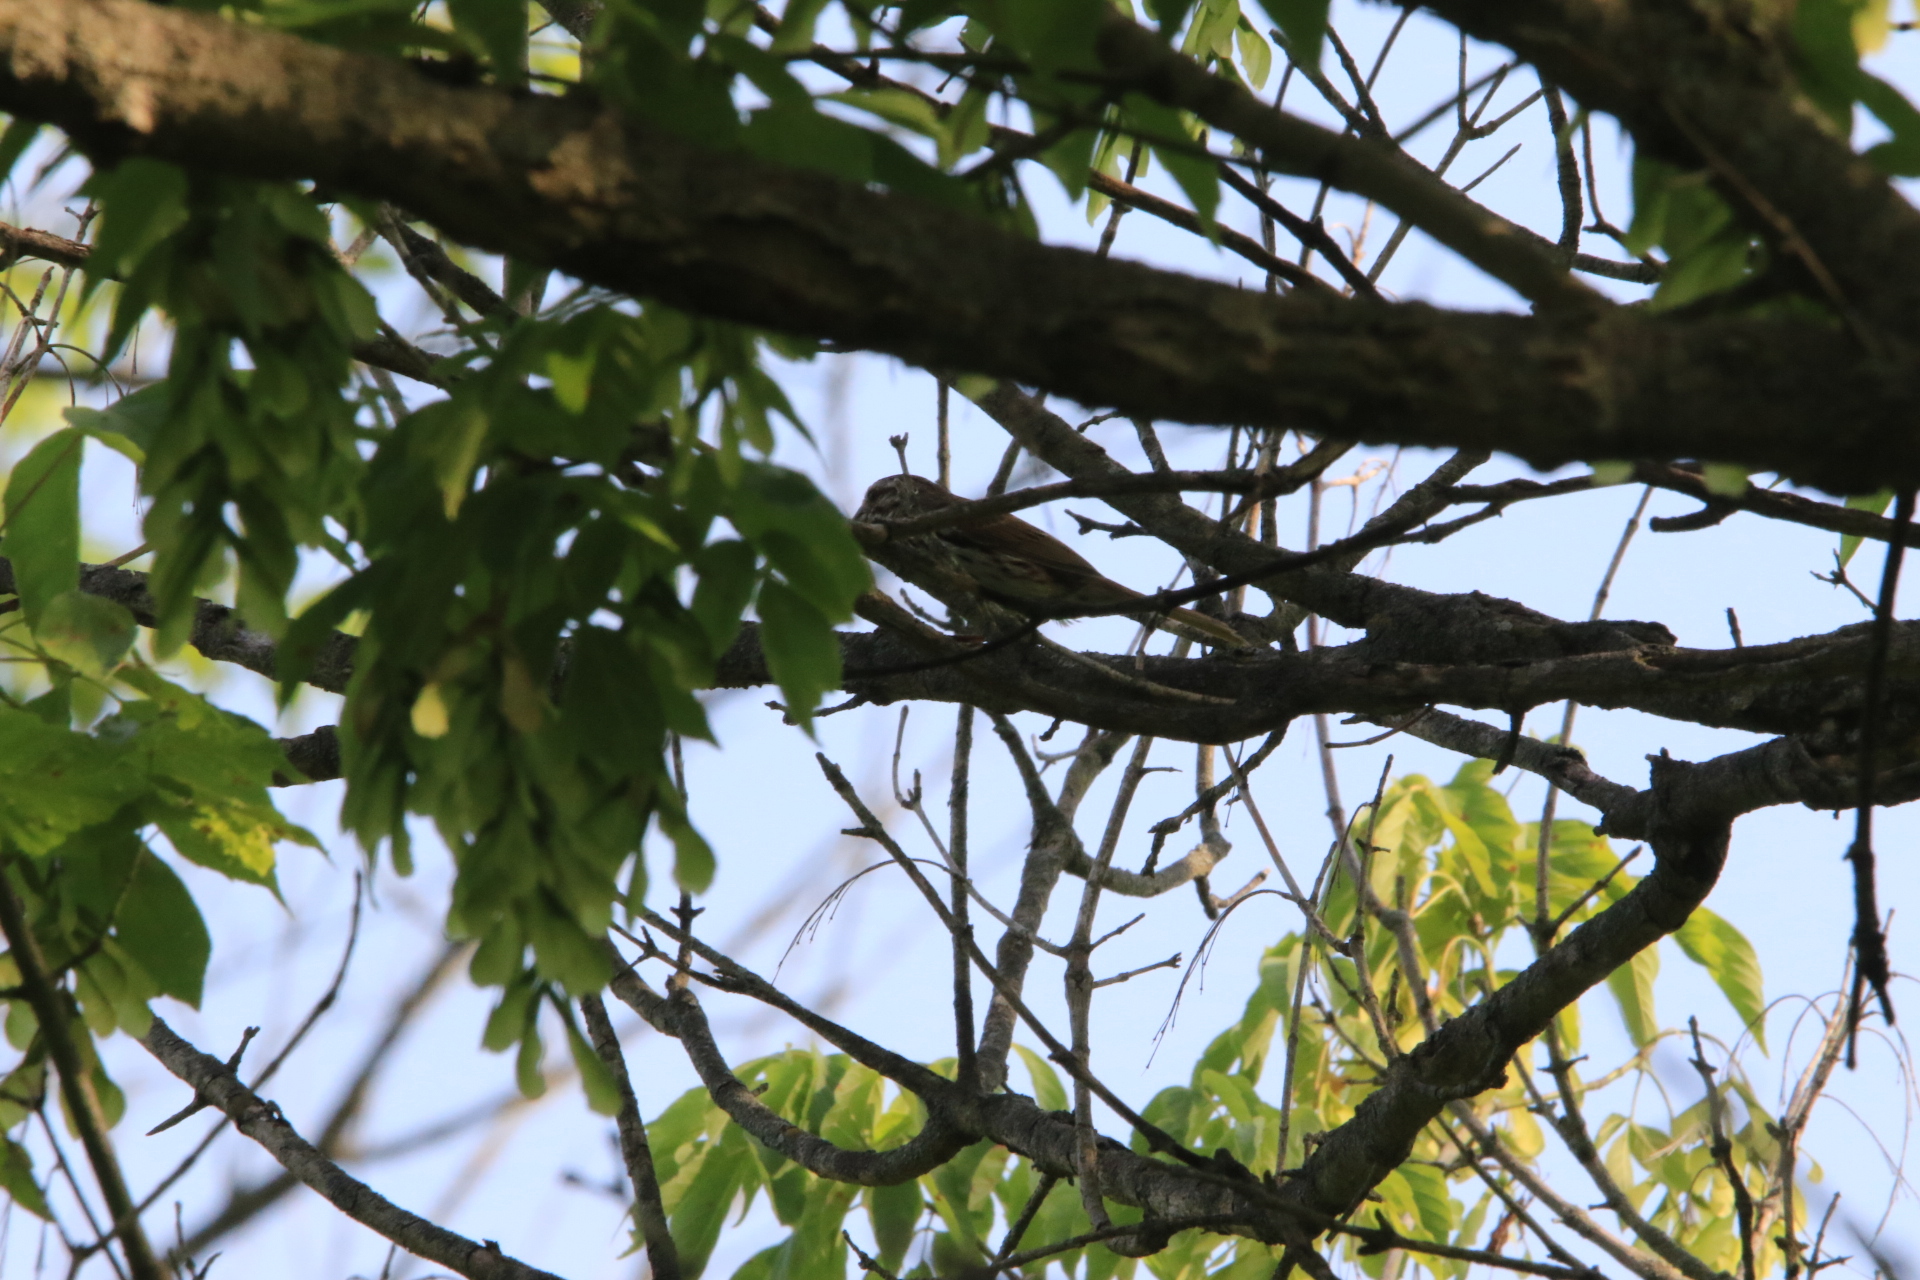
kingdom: Animalia
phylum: Chordata
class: Aves
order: Passeriformes
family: Passerellidae
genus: Melospiza
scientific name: Melospiza melodia
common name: Song sparrow
